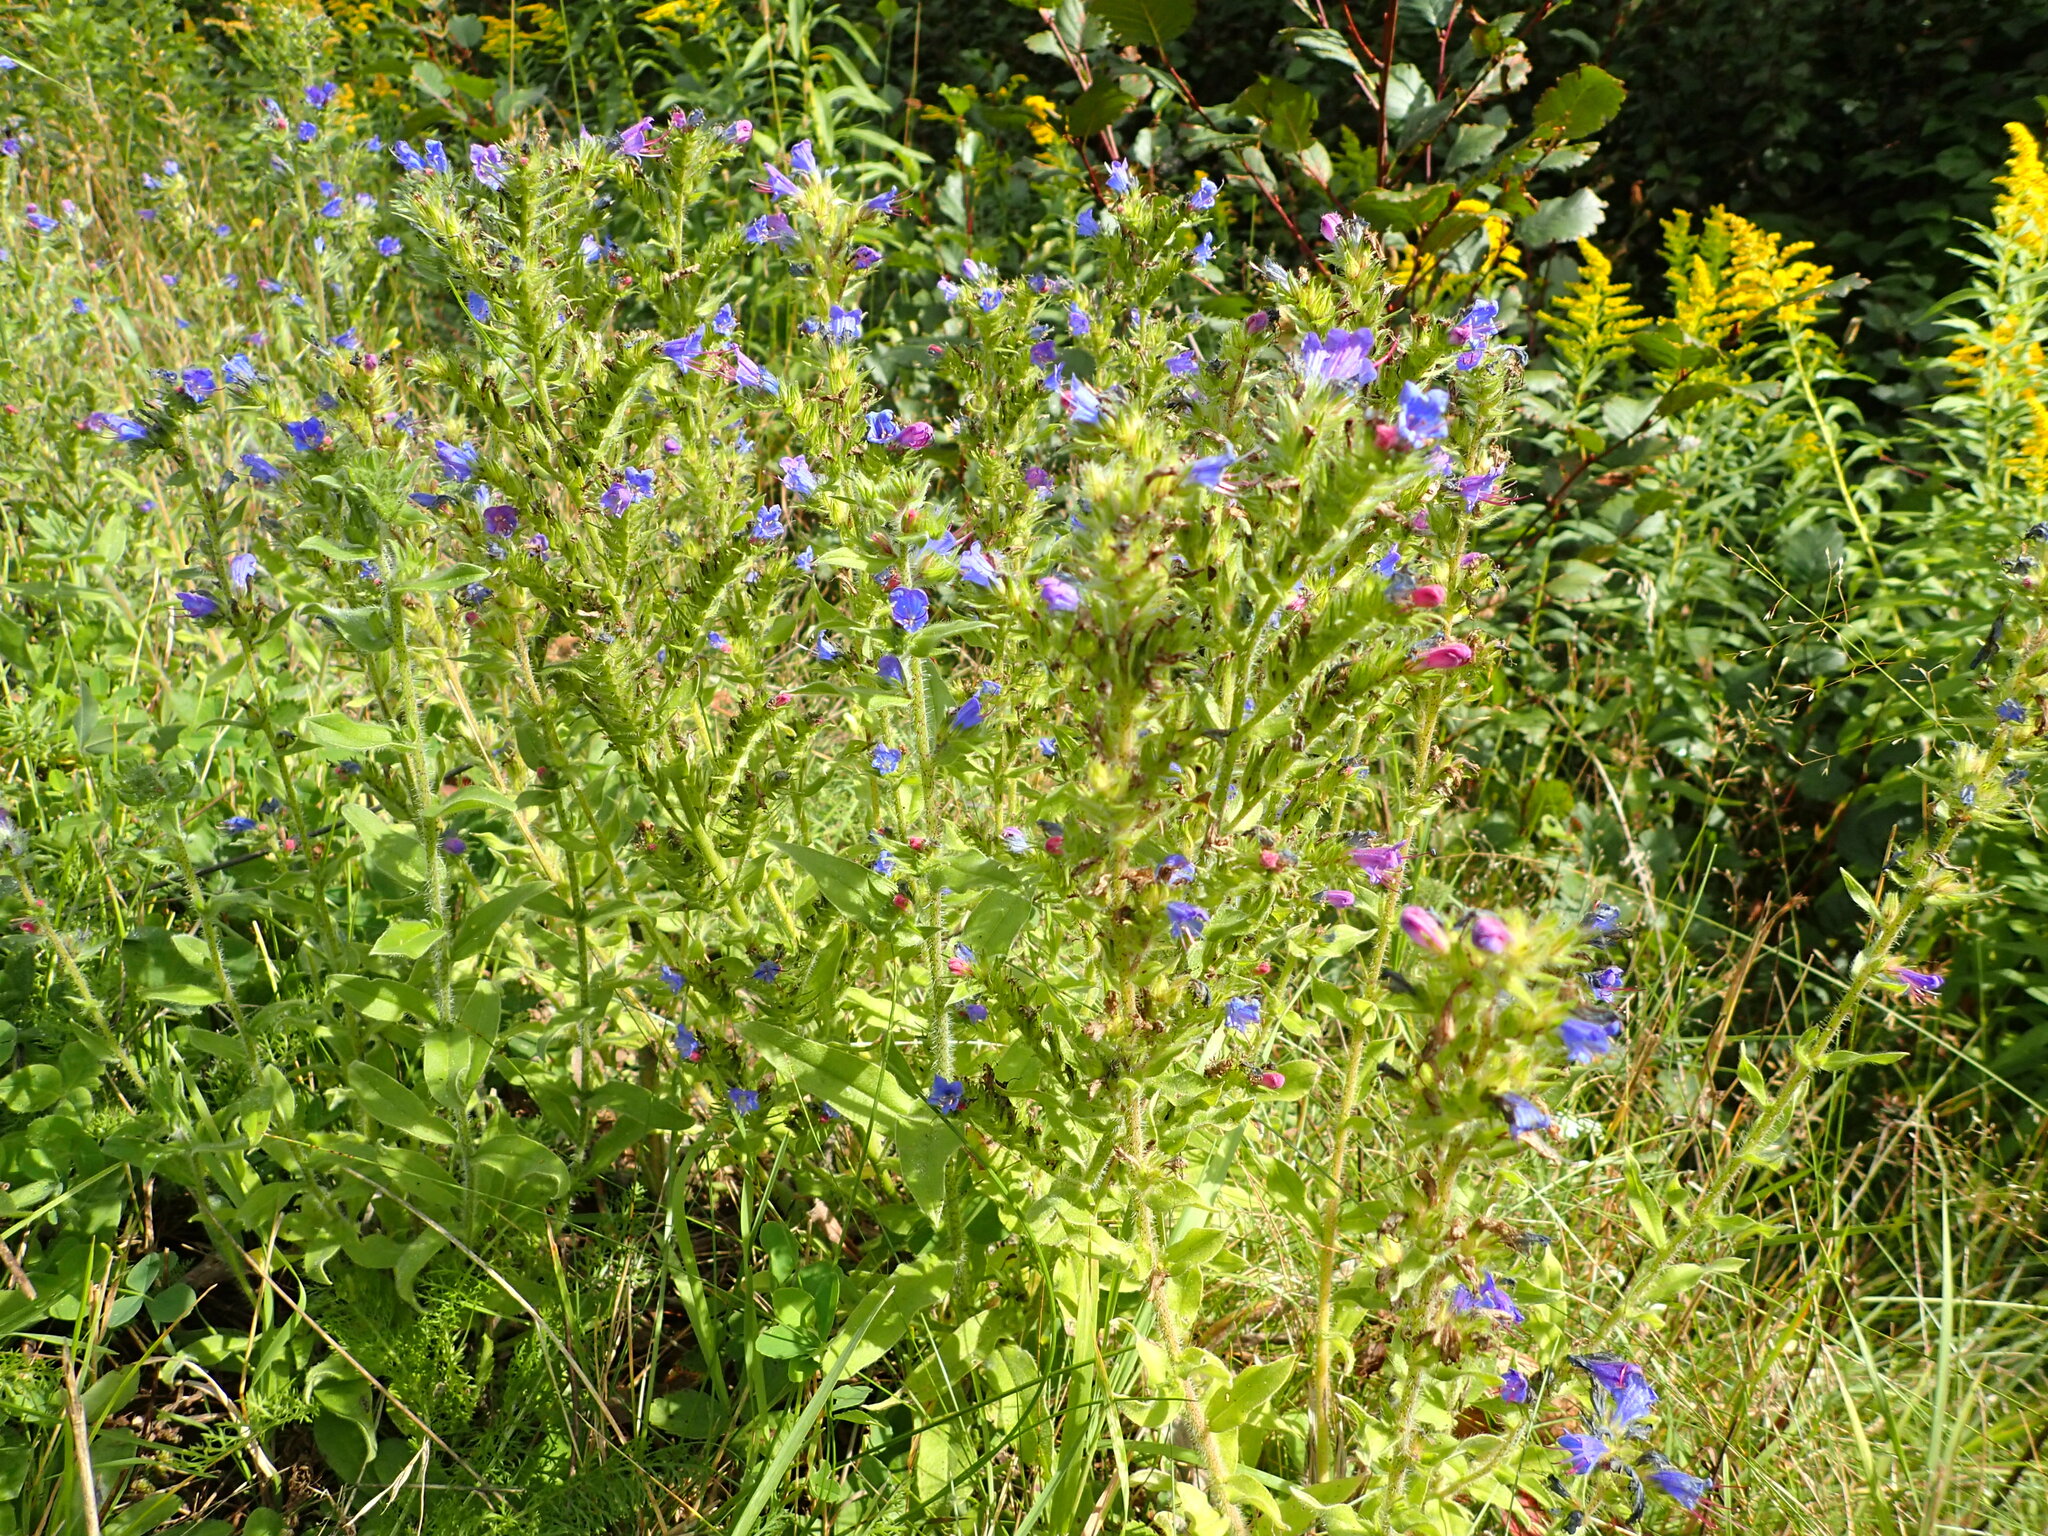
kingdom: Plantae
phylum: Tracheophyta
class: Magnoliopsida
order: Boraginales
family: Boraginaceae
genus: Echium
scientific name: Echium vulgare
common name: Common viper's bugloss
